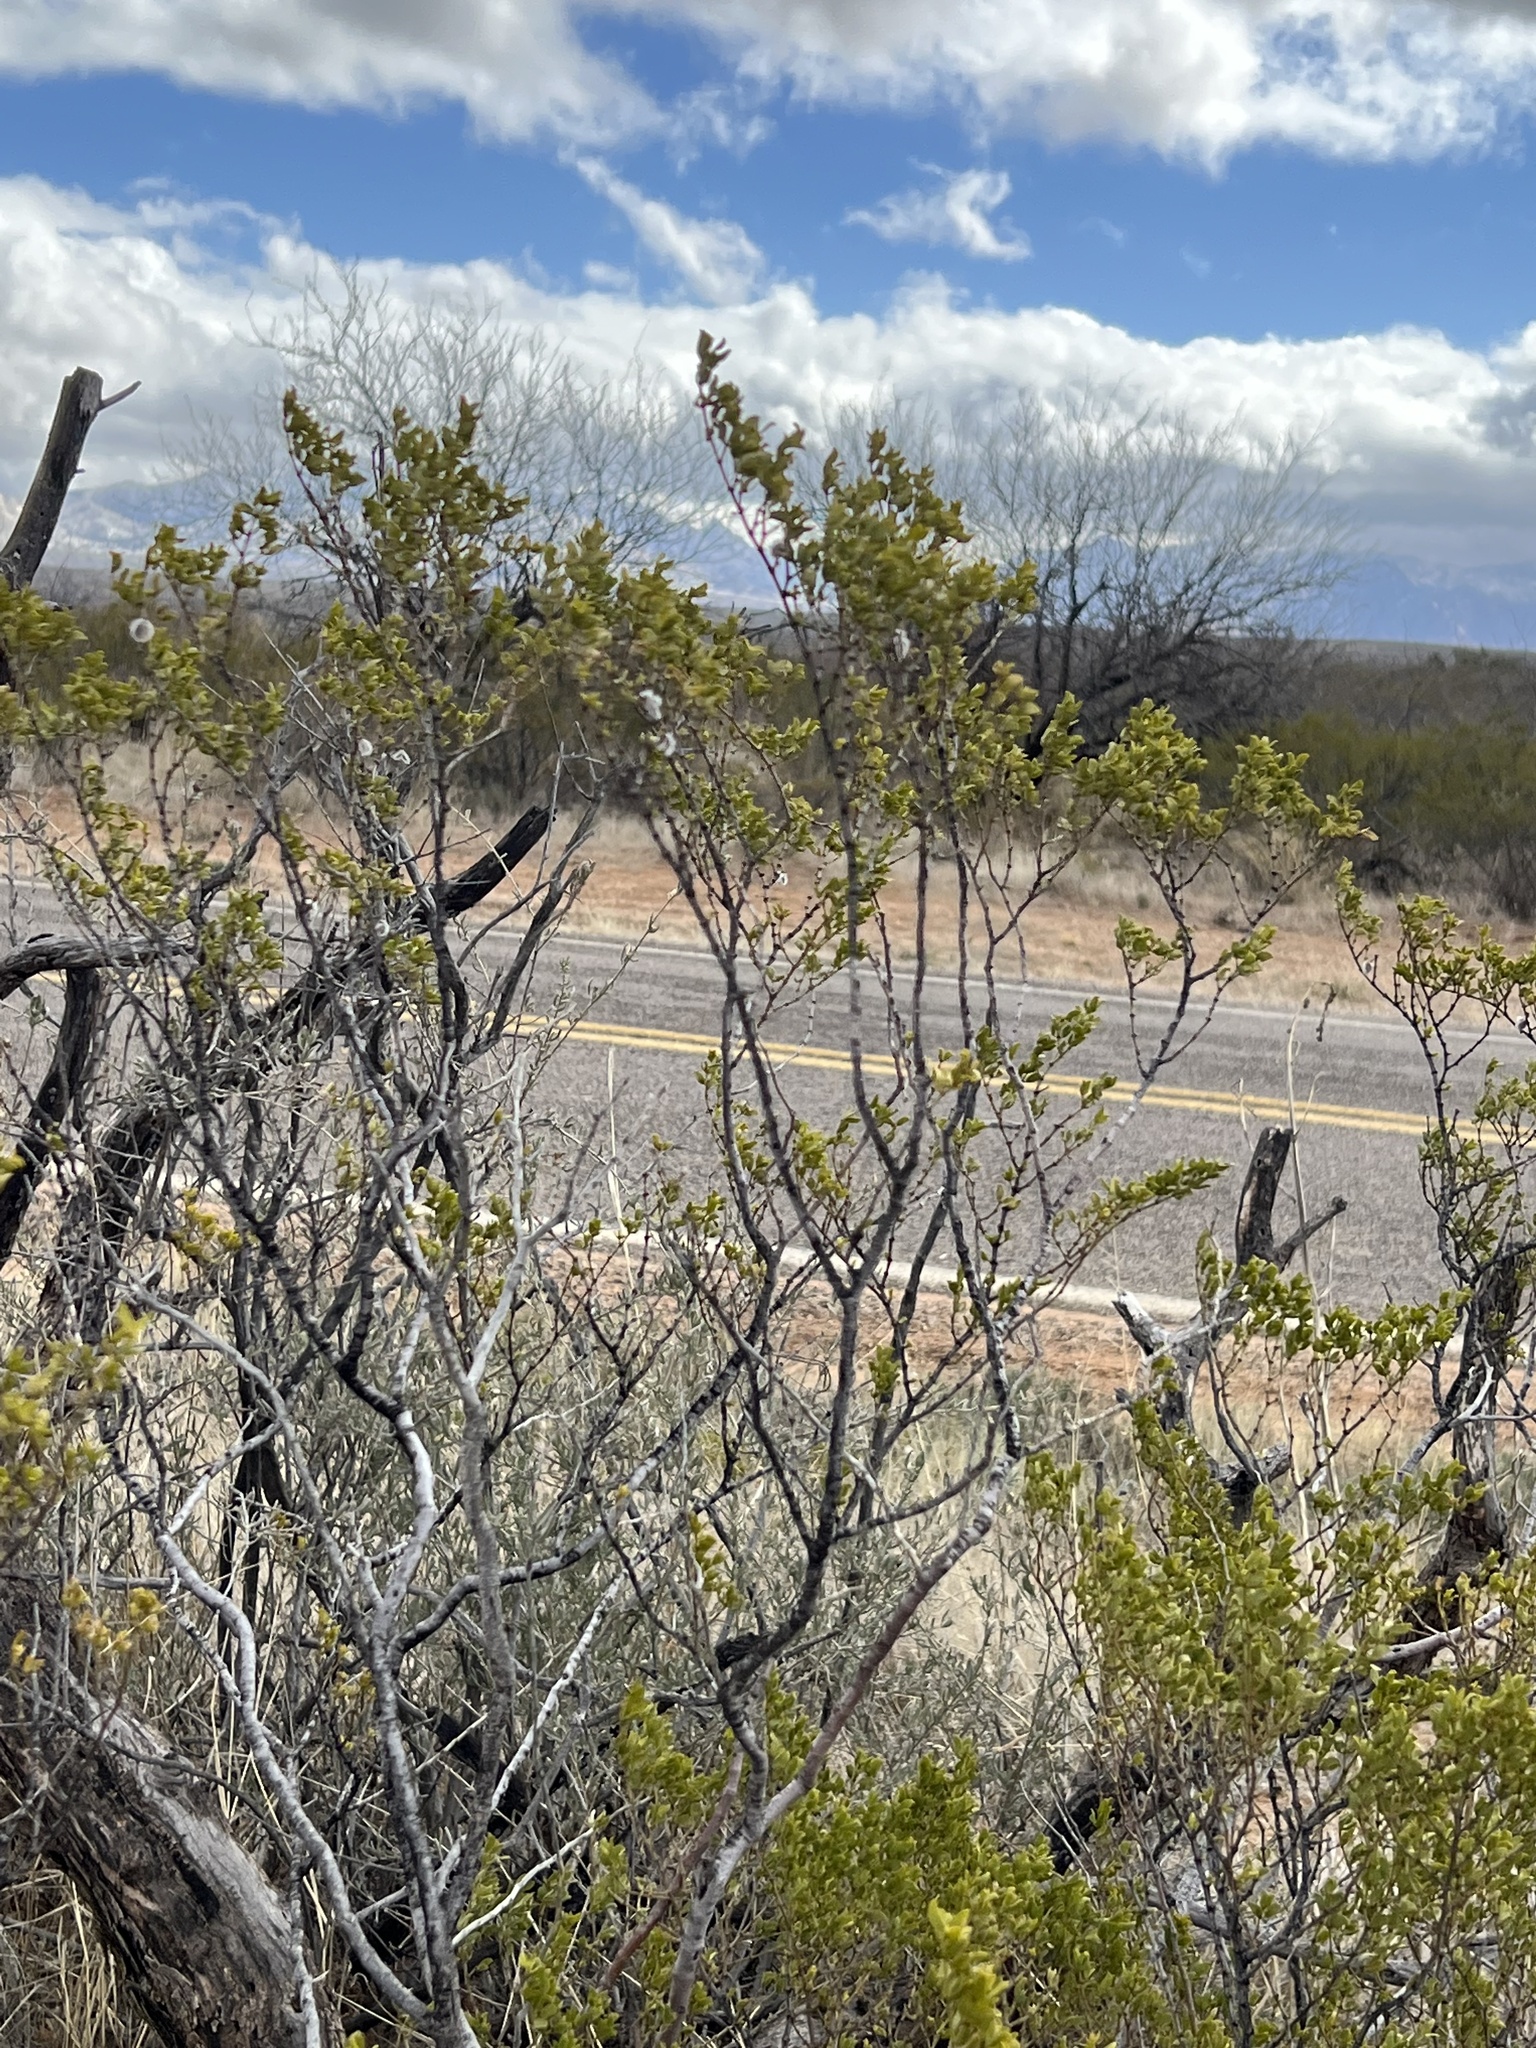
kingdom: Plantae
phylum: Tracheophyta
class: Magnoliopsida
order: Zygophyllales
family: Zygophyllaceae
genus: Larrea
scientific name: Larrea tridentata
